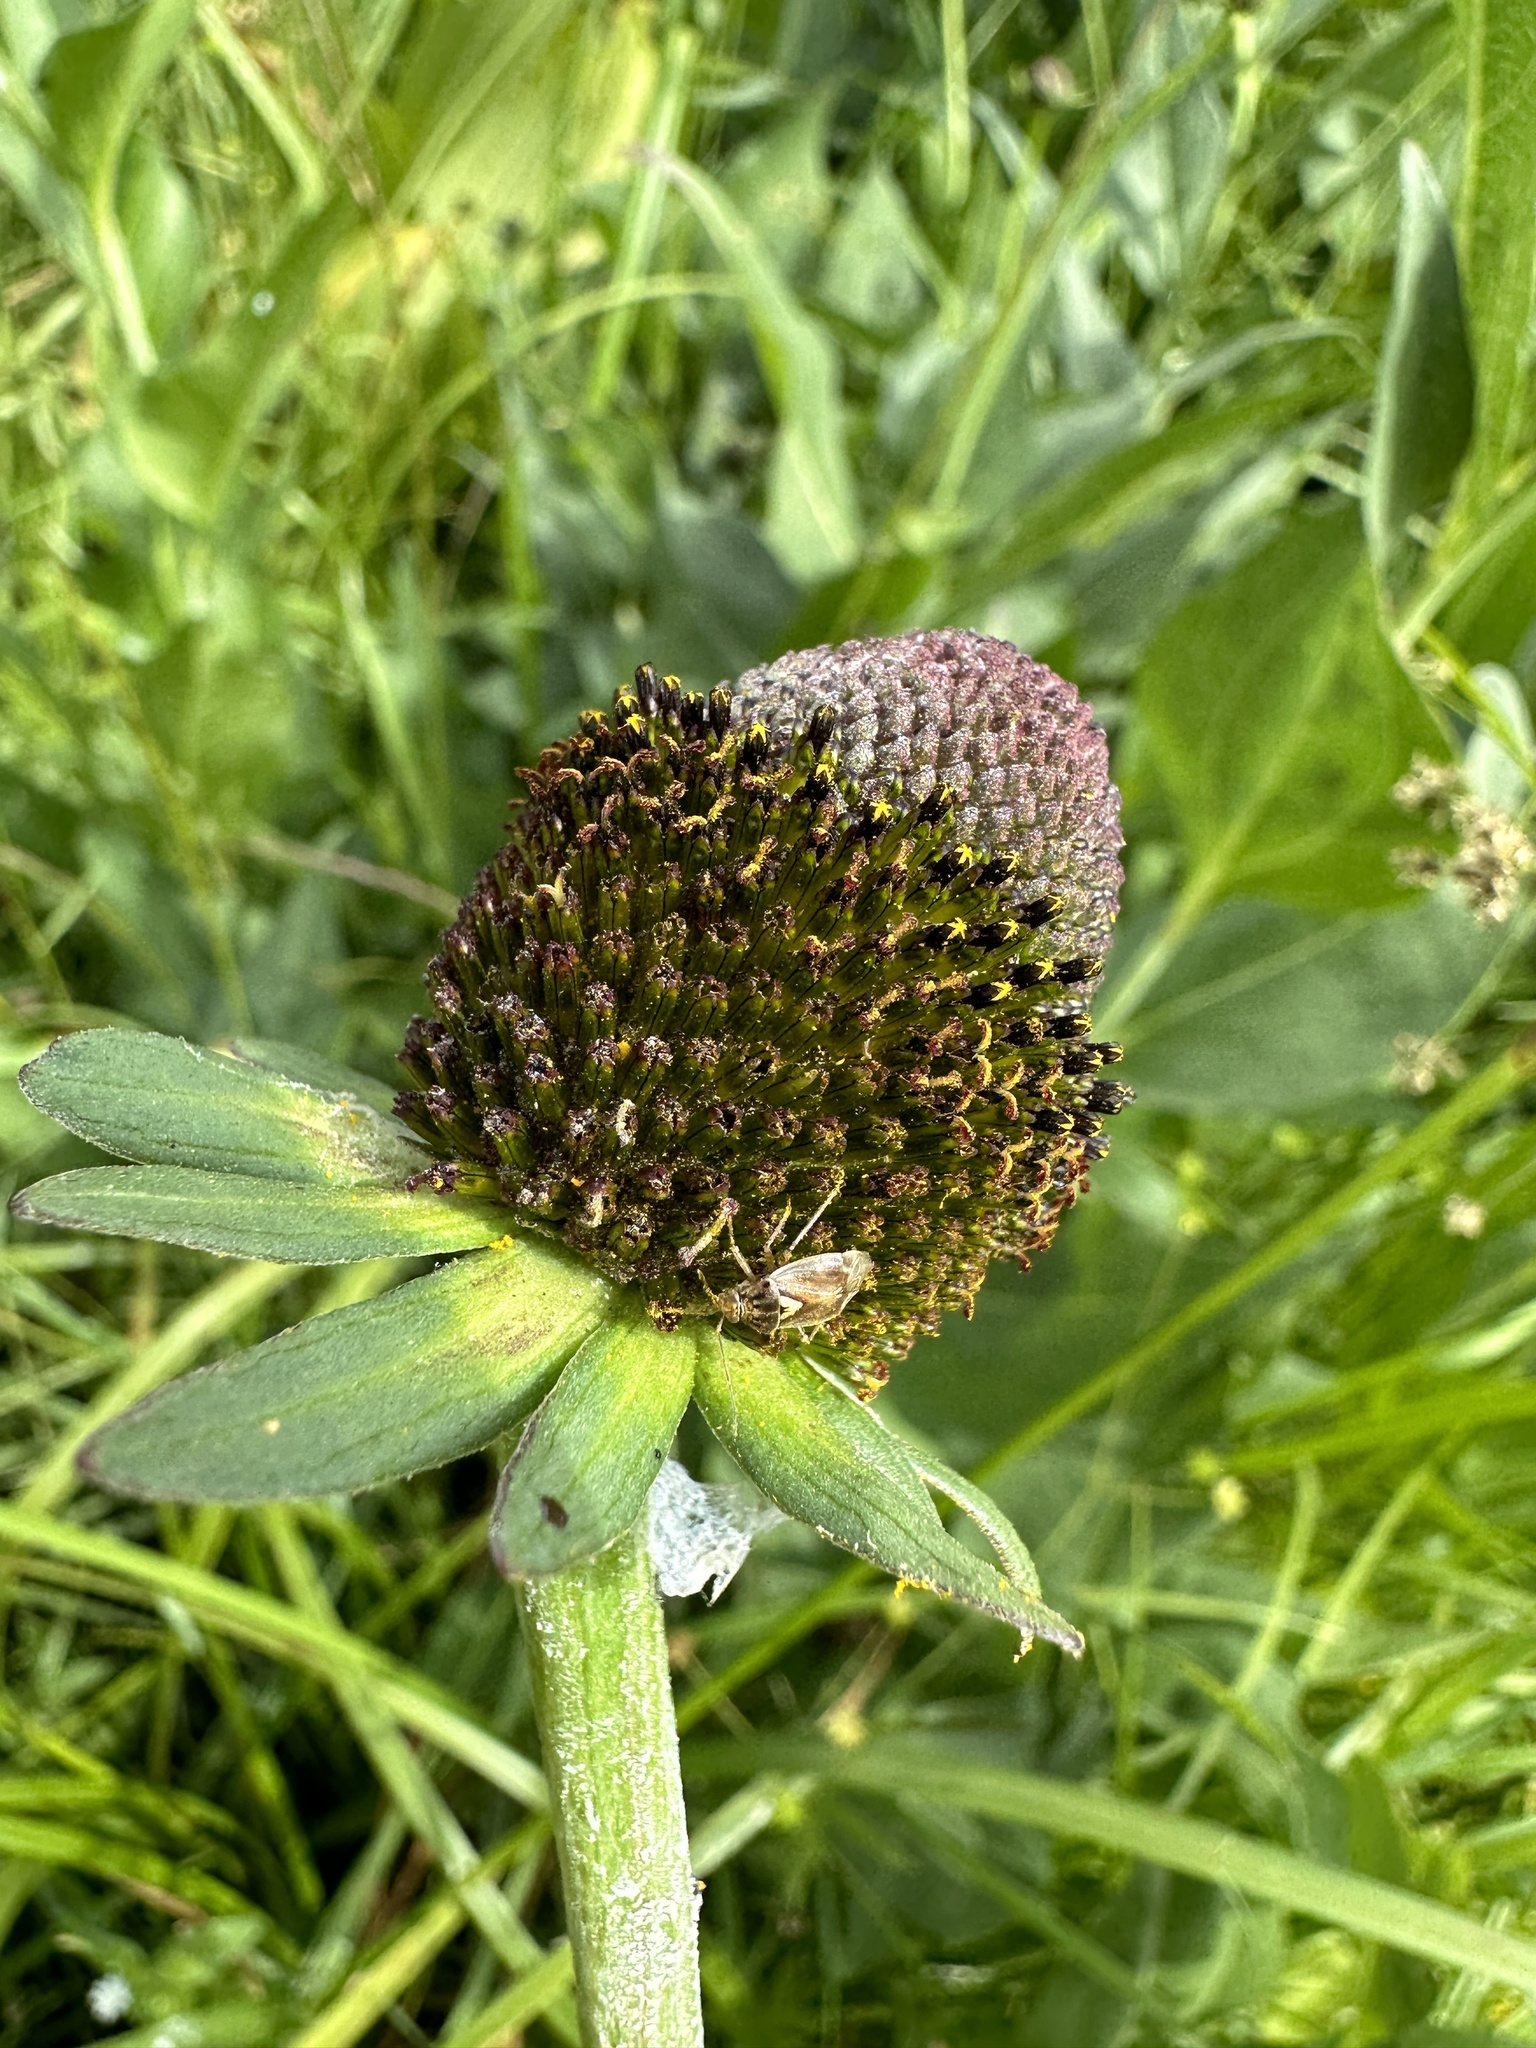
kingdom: Plantae
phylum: Tracheophyta
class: Magnoliopsida
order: Asterales
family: Asteraceae
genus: Rudbeckia
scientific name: Rudbeckia occidentalis
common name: Western coneflower
